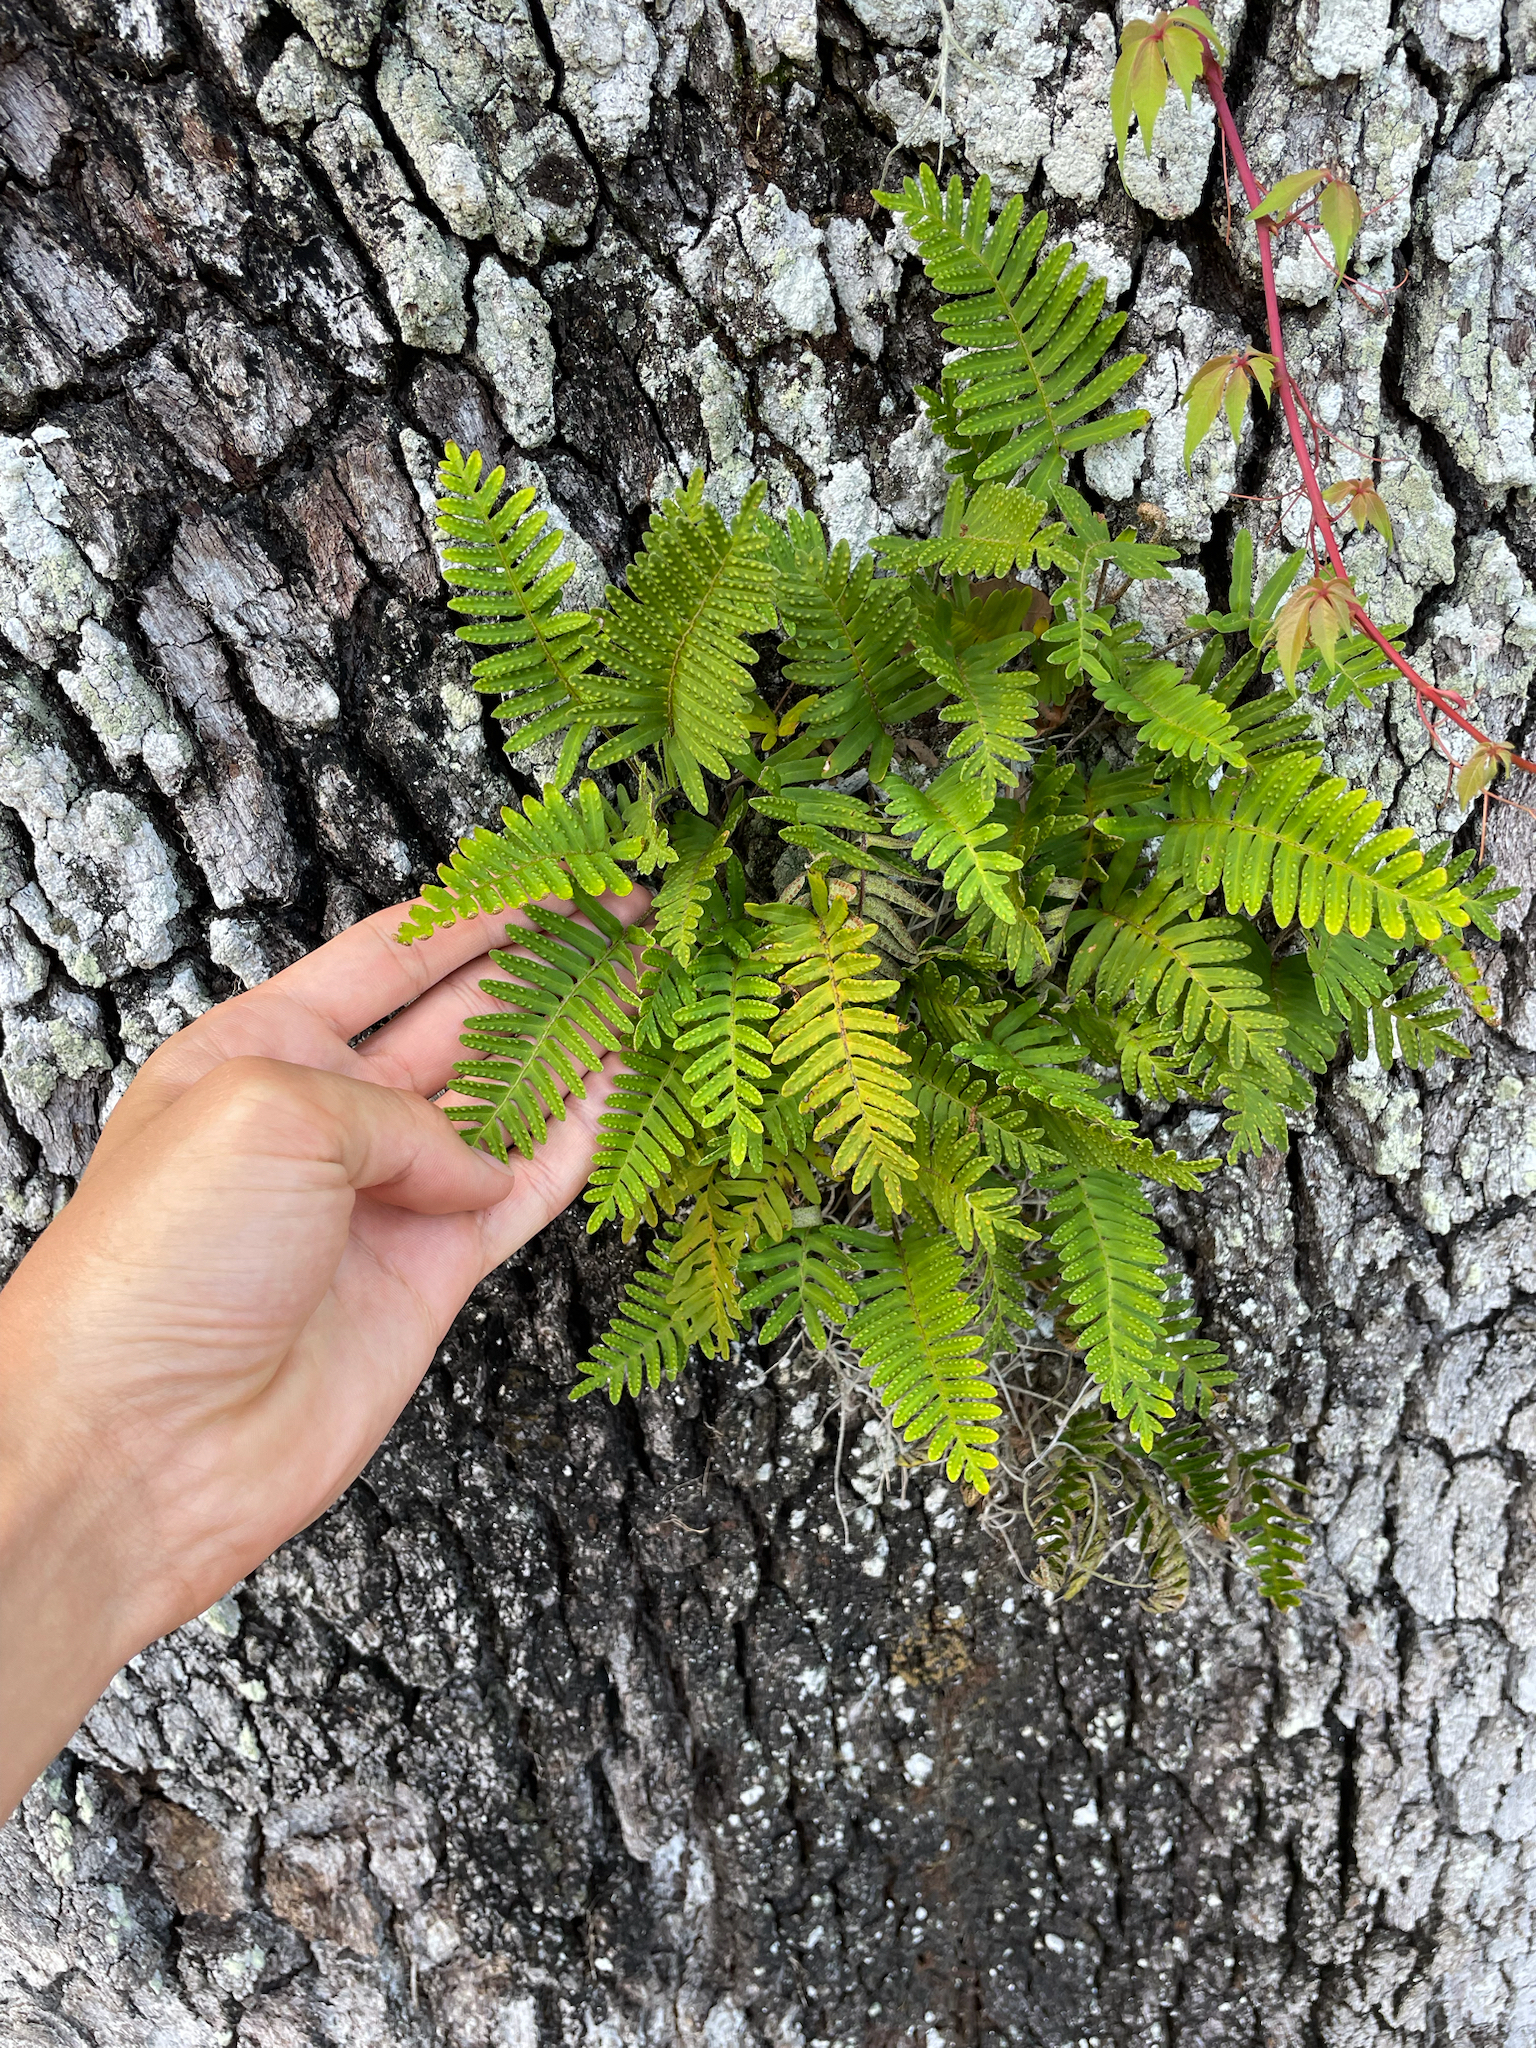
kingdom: Plantae
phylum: Tracheophyta
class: Polypodiopsida
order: Polypodiales
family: Polypodiaceae
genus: Pleopeltis
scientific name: Pleopeltis michauxiana
